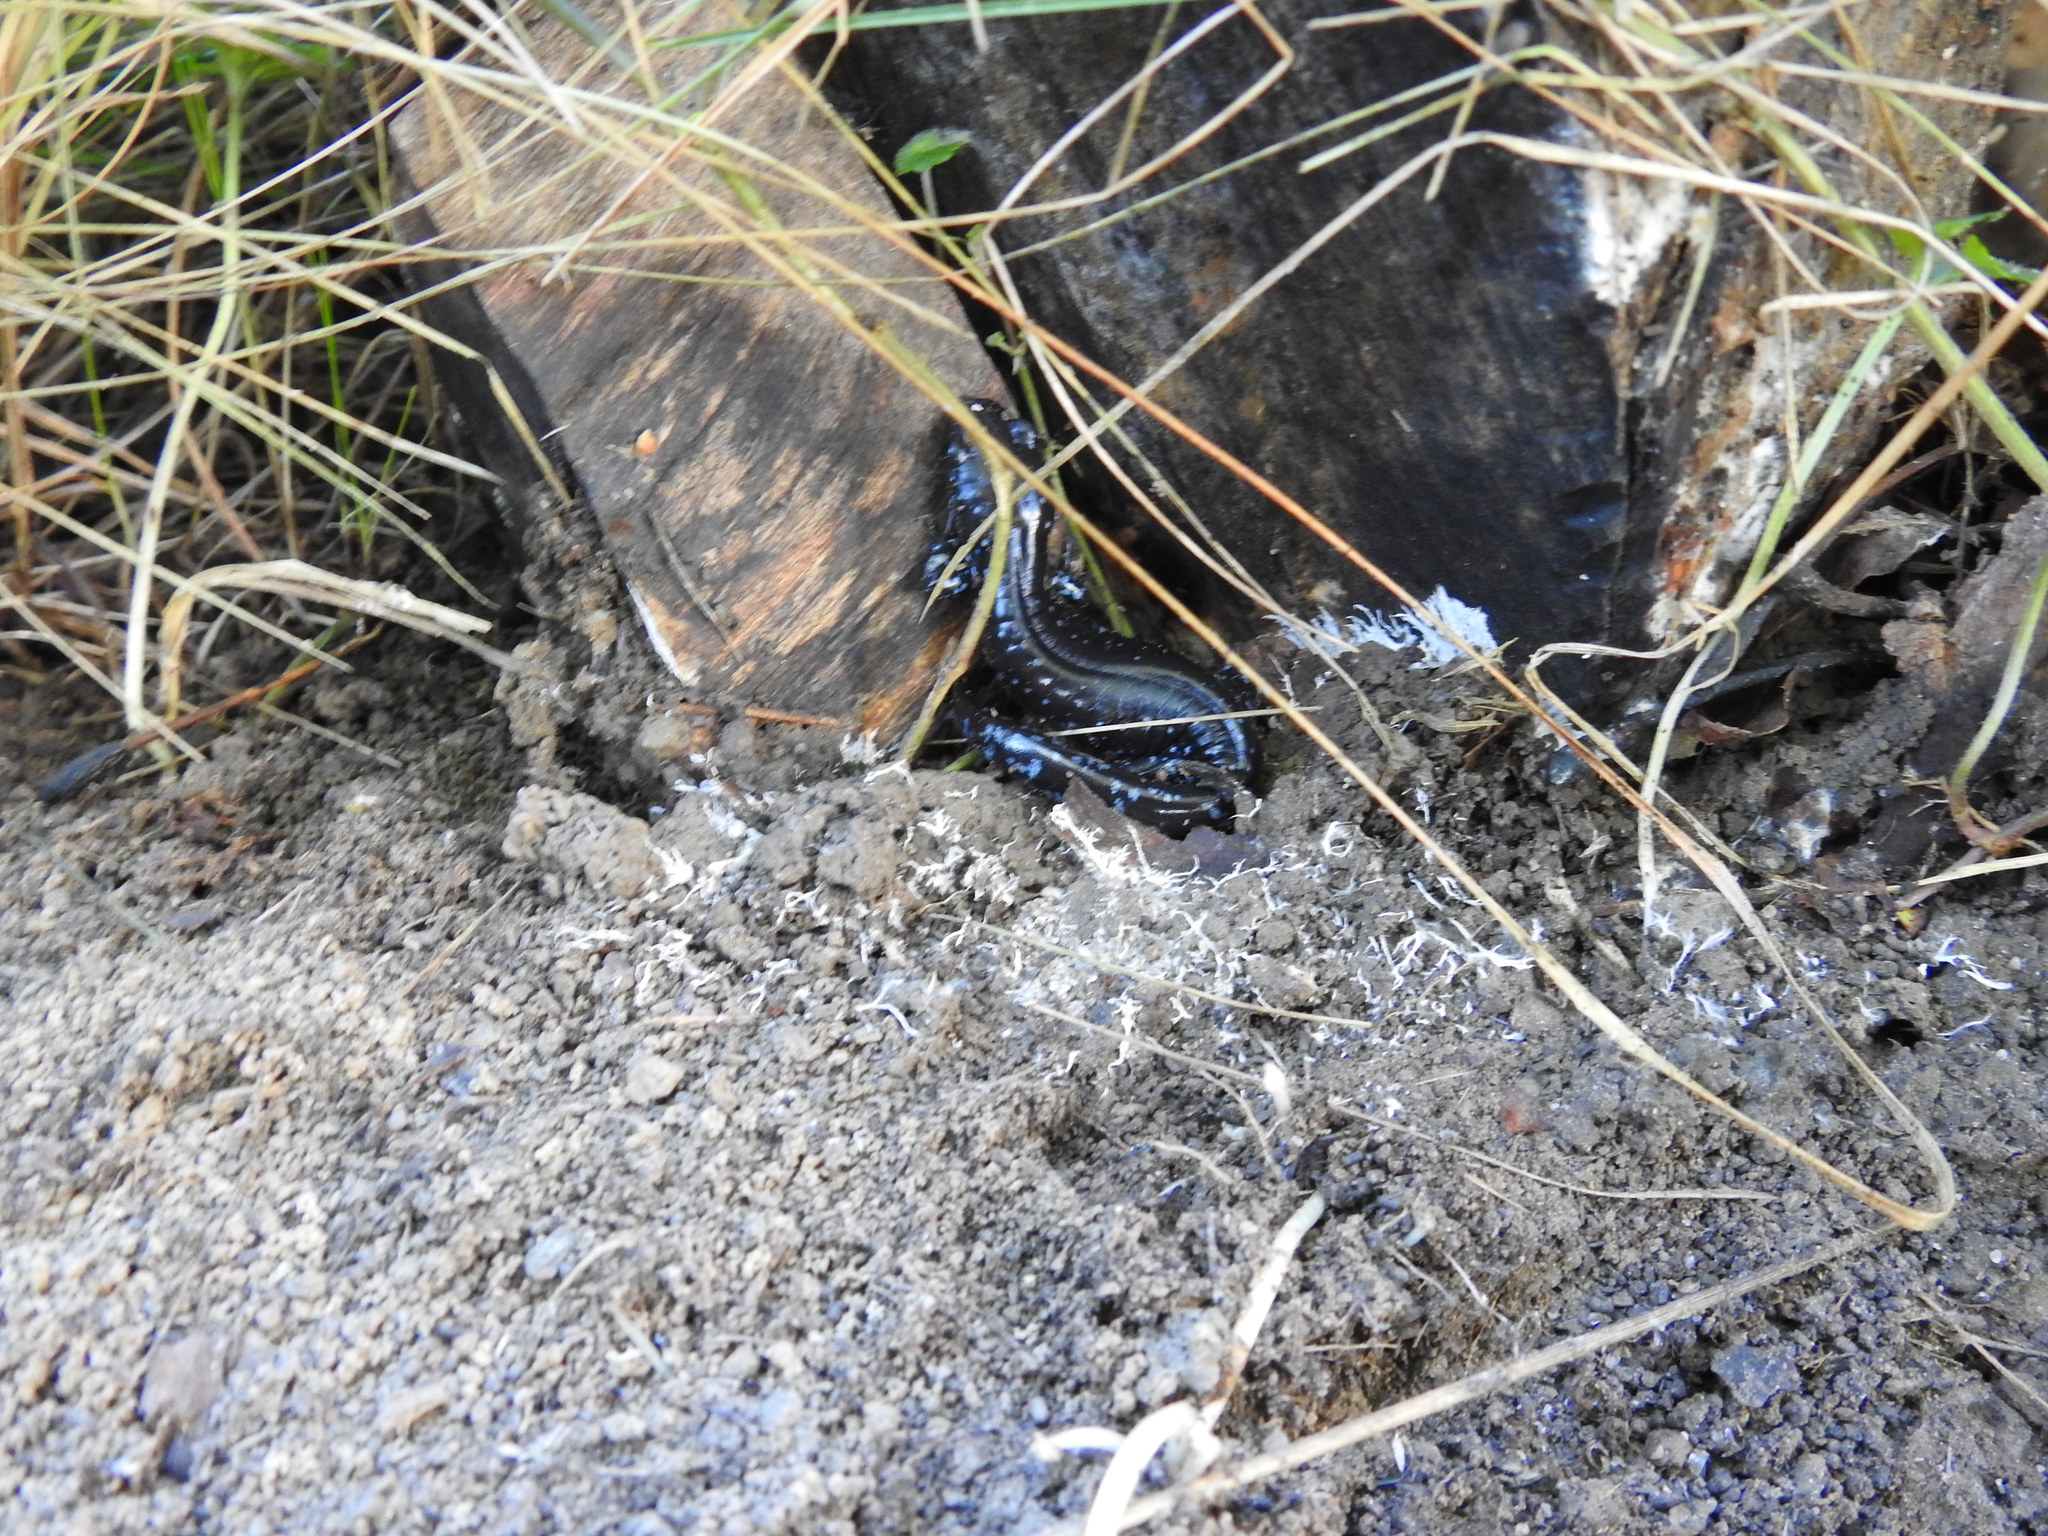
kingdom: Animalia
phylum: Chordata
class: Amphibia
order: Caudata
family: Ambystomatidae
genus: Ambystoma
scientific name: Ambystoma laterale
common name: Blue-spotted salamander
